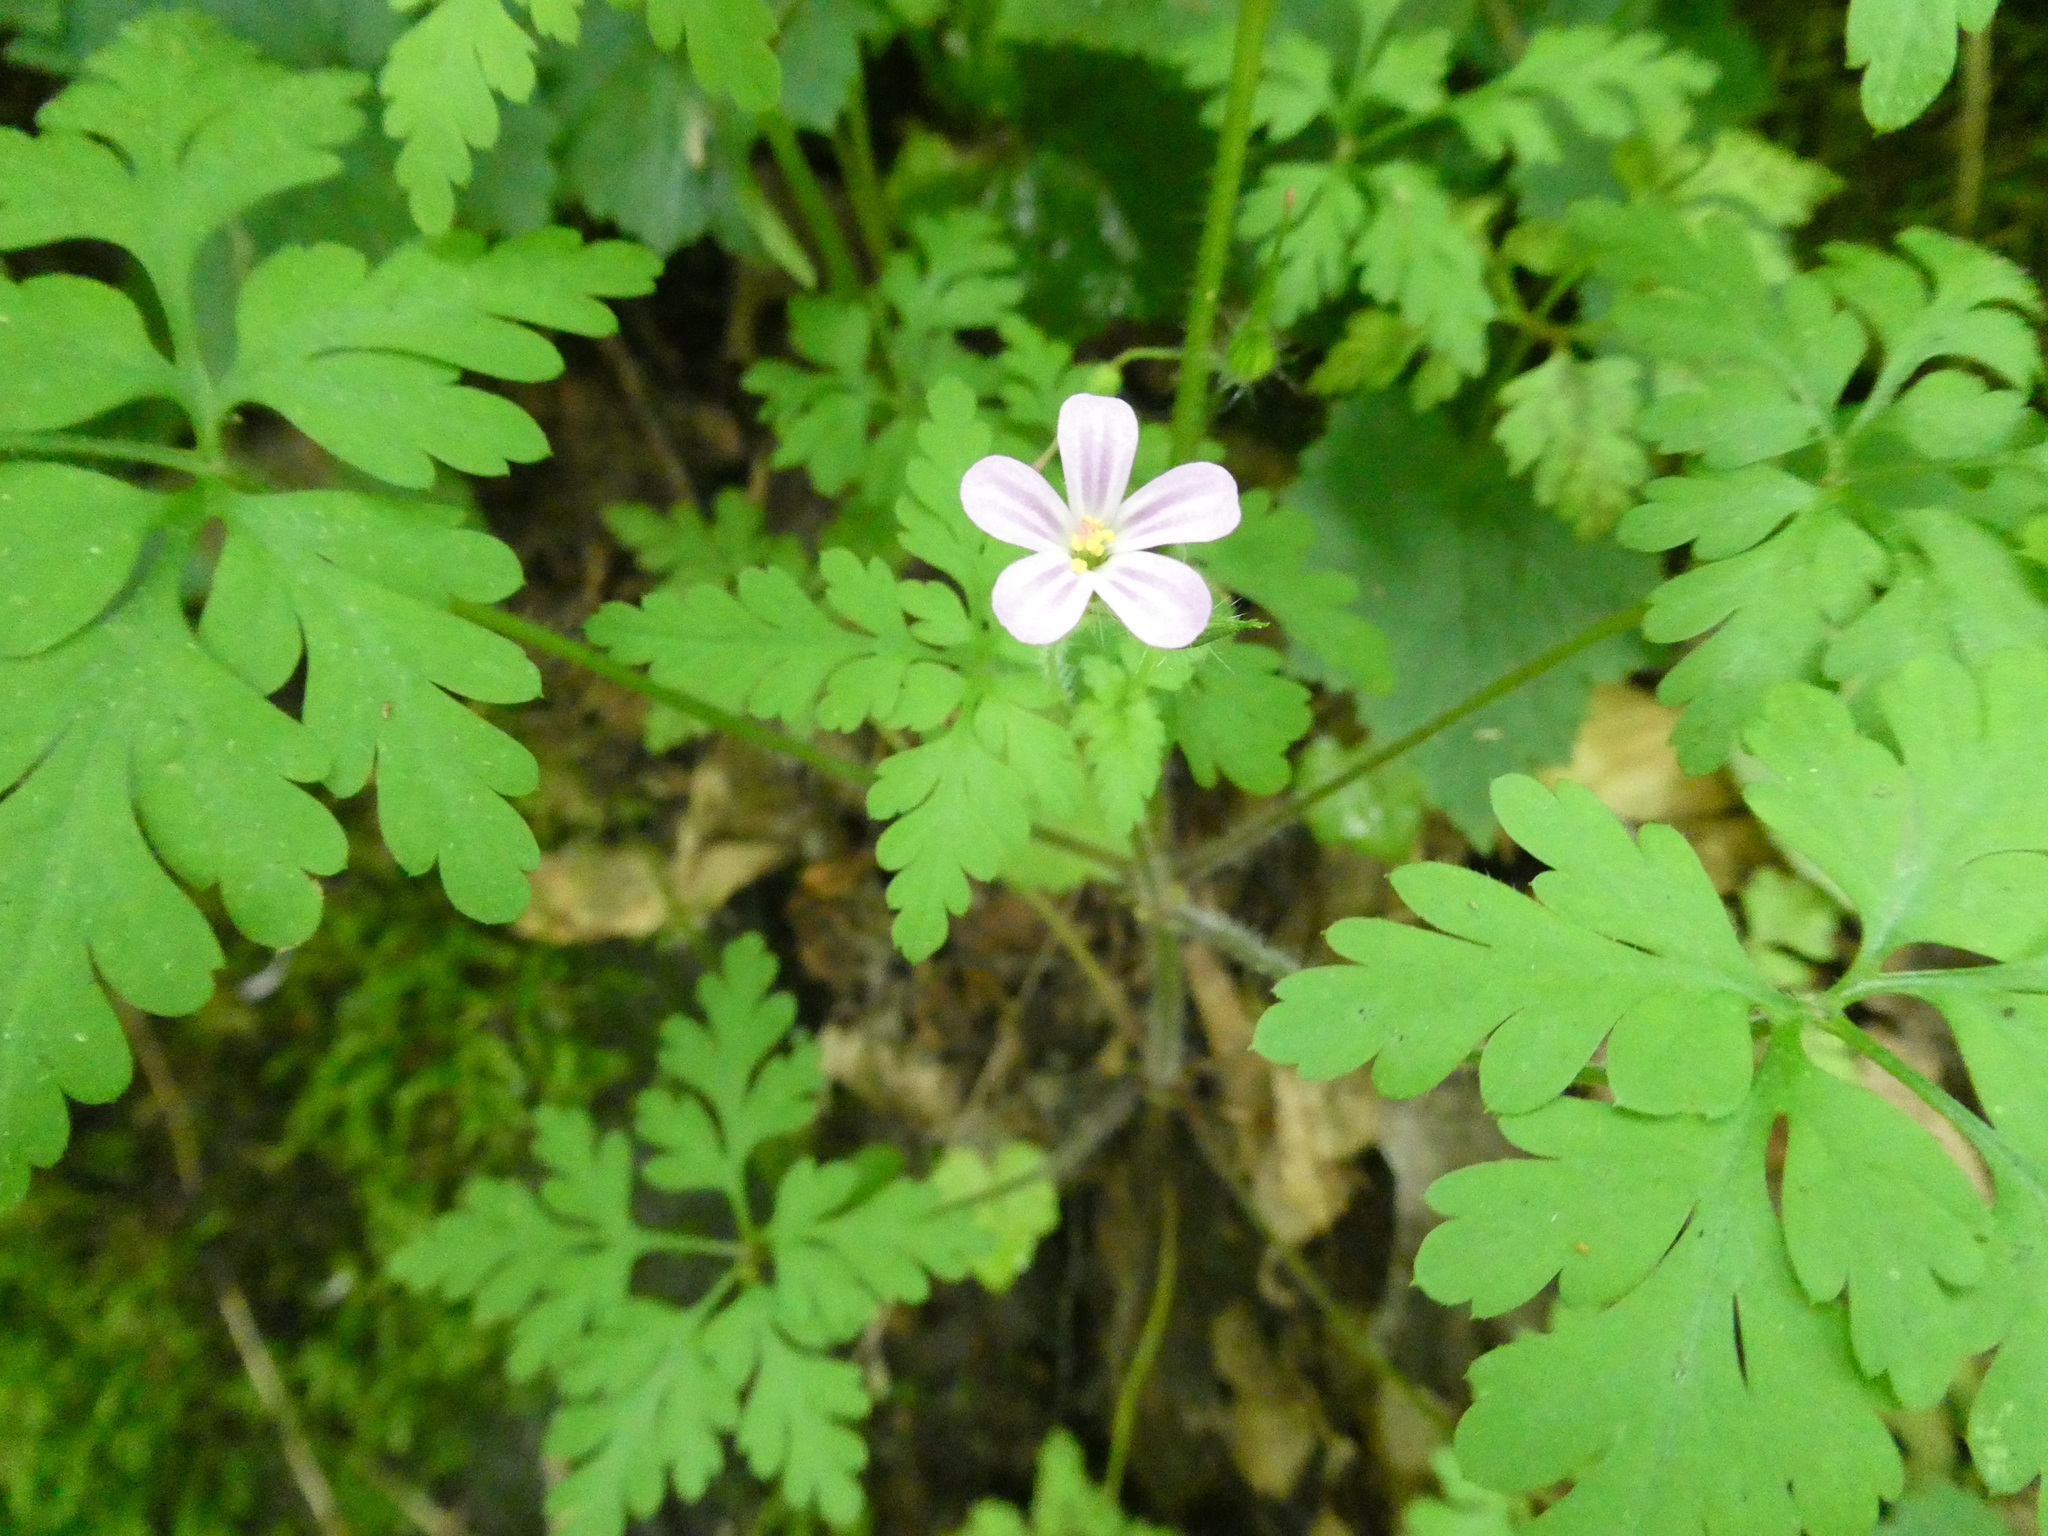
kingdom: Plantae
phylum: Tracheophyta
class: Magnoliopsida
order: Geraniales
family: Geraniaceae
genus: Geranium
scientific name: Geranium robertianum
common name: Herb-robert
